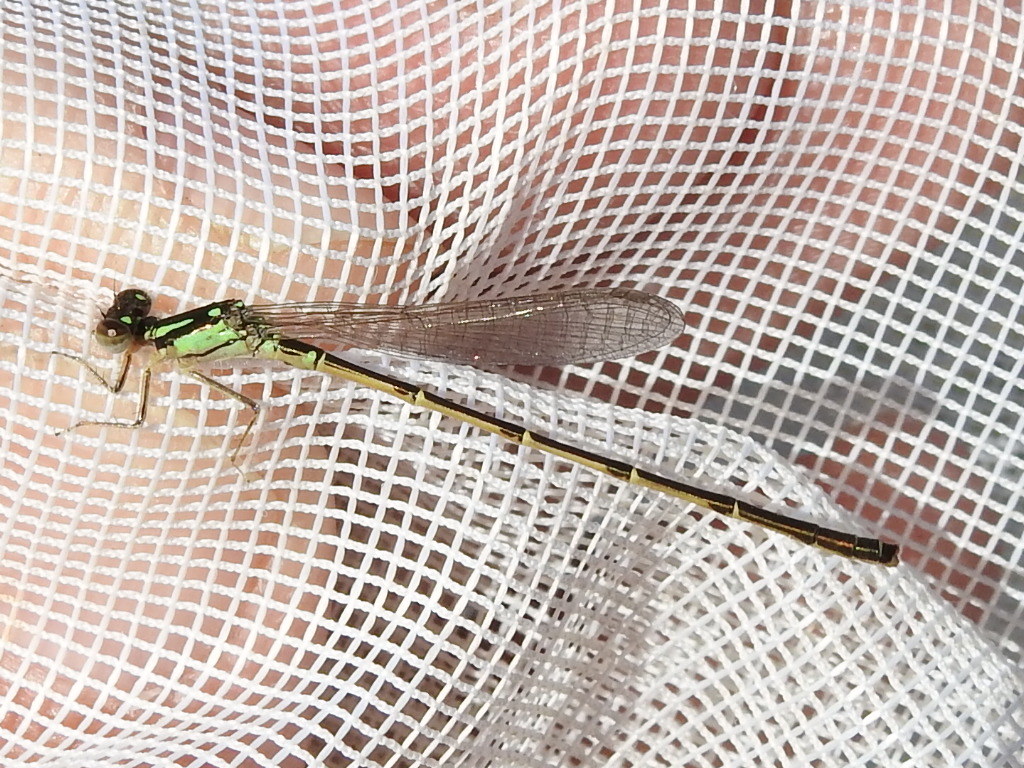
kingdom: Animalia
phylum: Arthropoda
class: Insecta
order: Odonata
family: Coenagrionidae
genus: Ischnura
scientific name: Ischnura posita
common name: Fragile forktail
